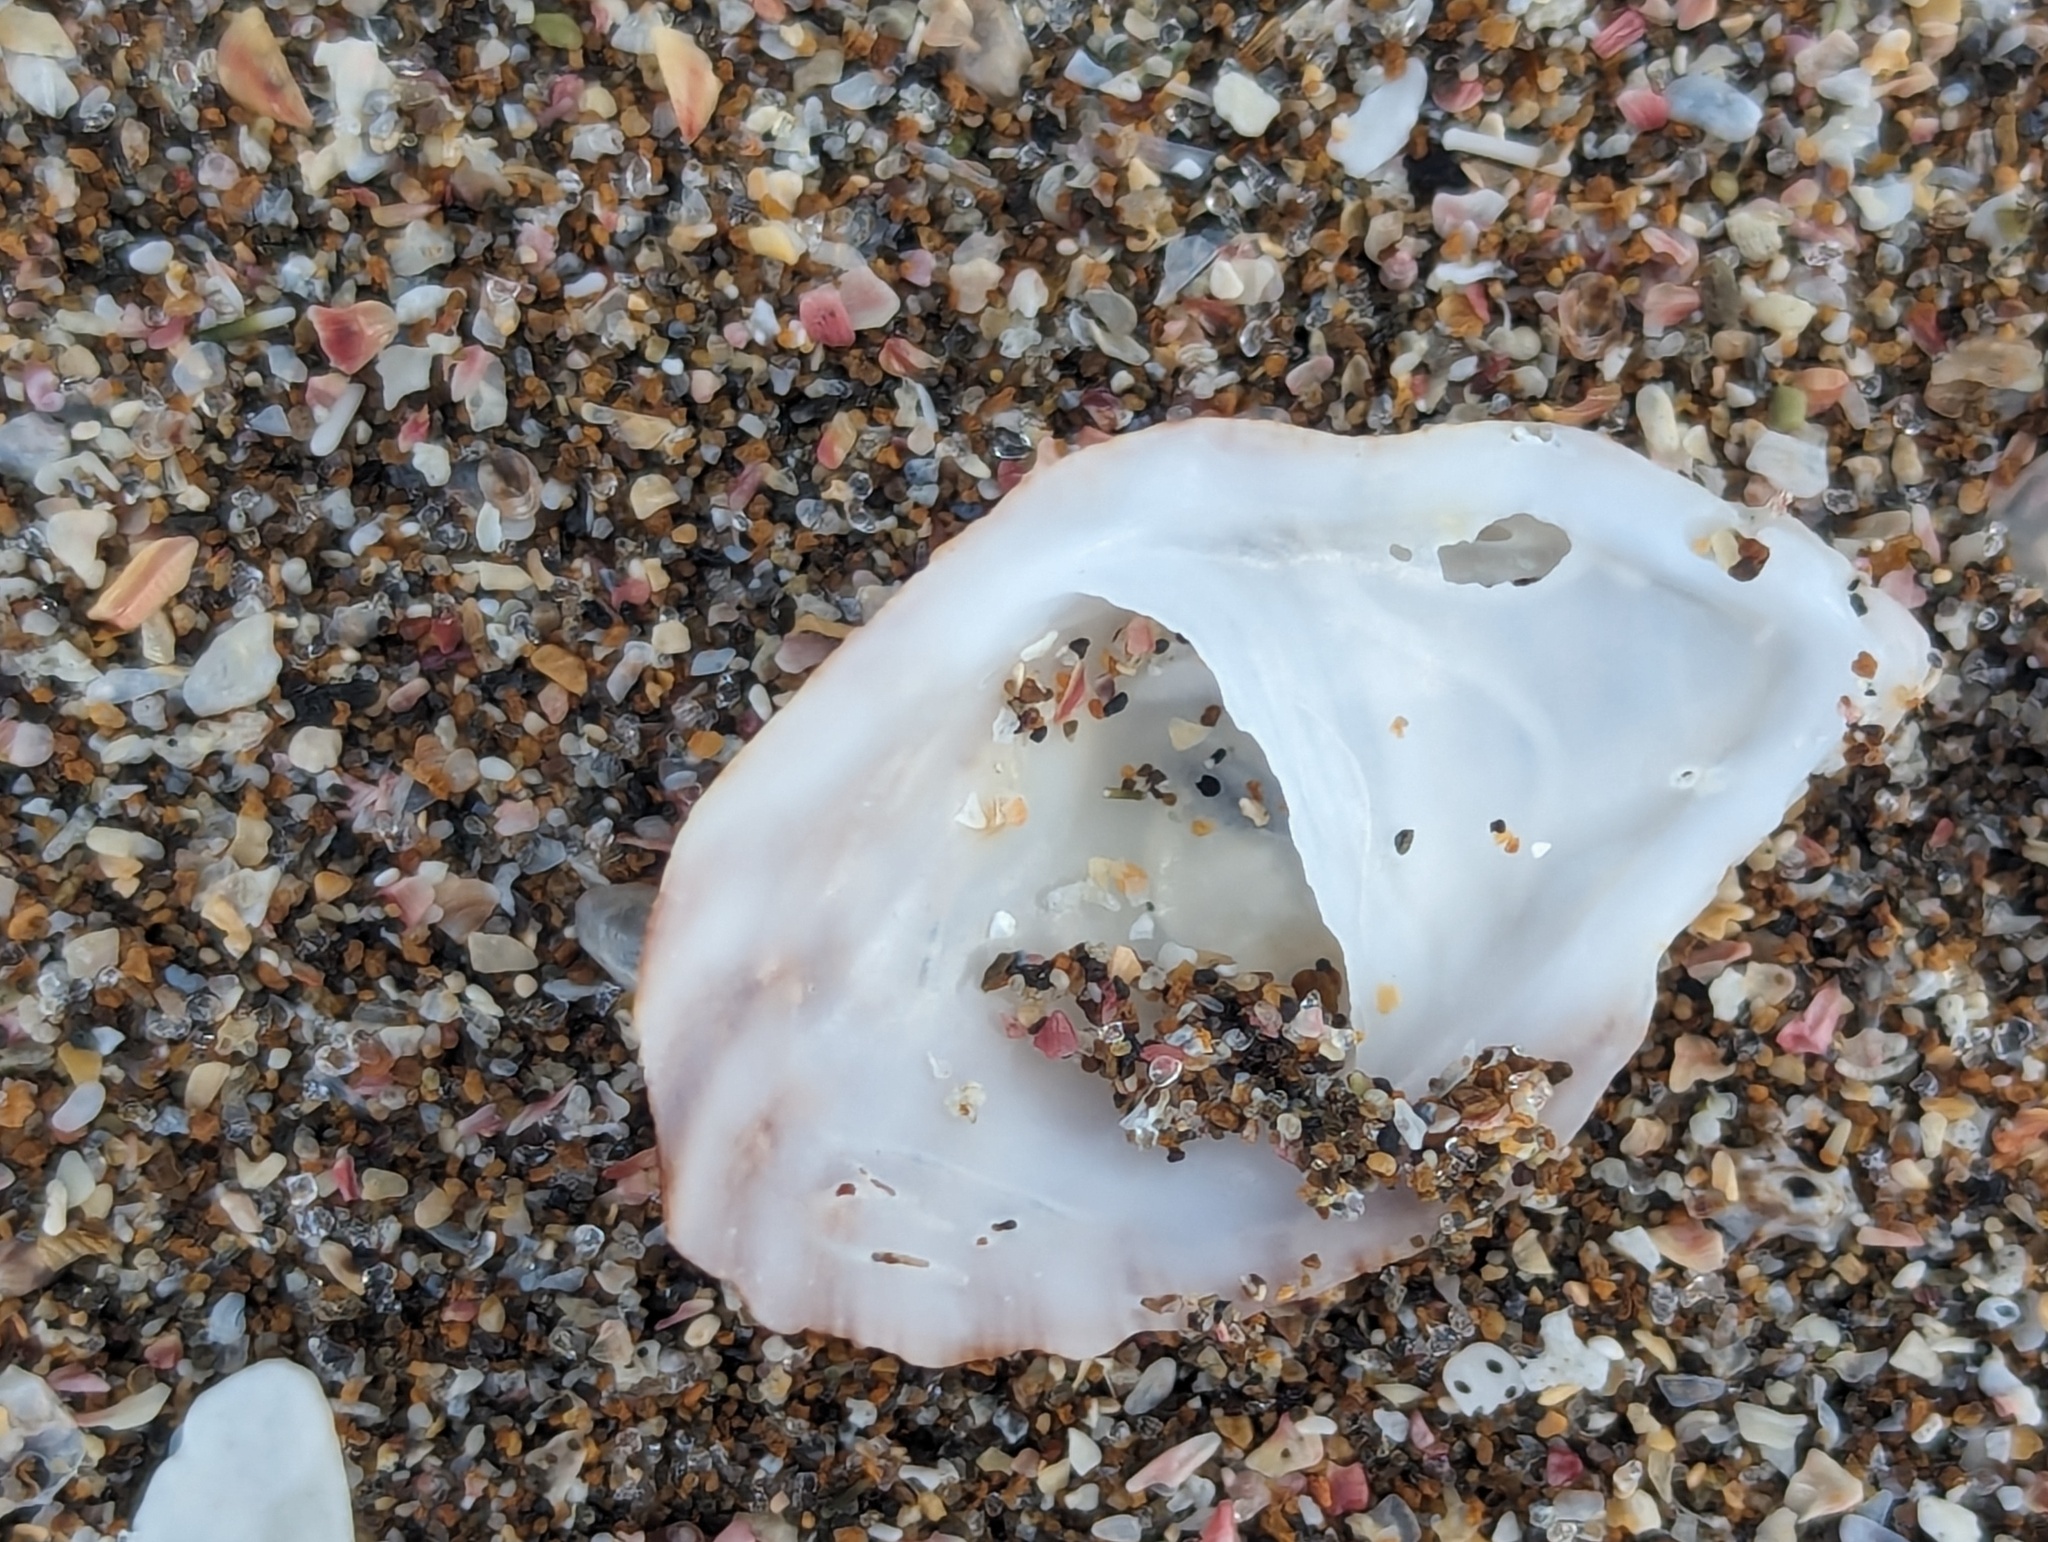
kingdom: Animalia
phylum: Mollusca
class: Gastropoda
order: Littorinimorpha
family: Calyptraeidae
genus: Maoricrypta
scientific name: Maoricrypta costata
